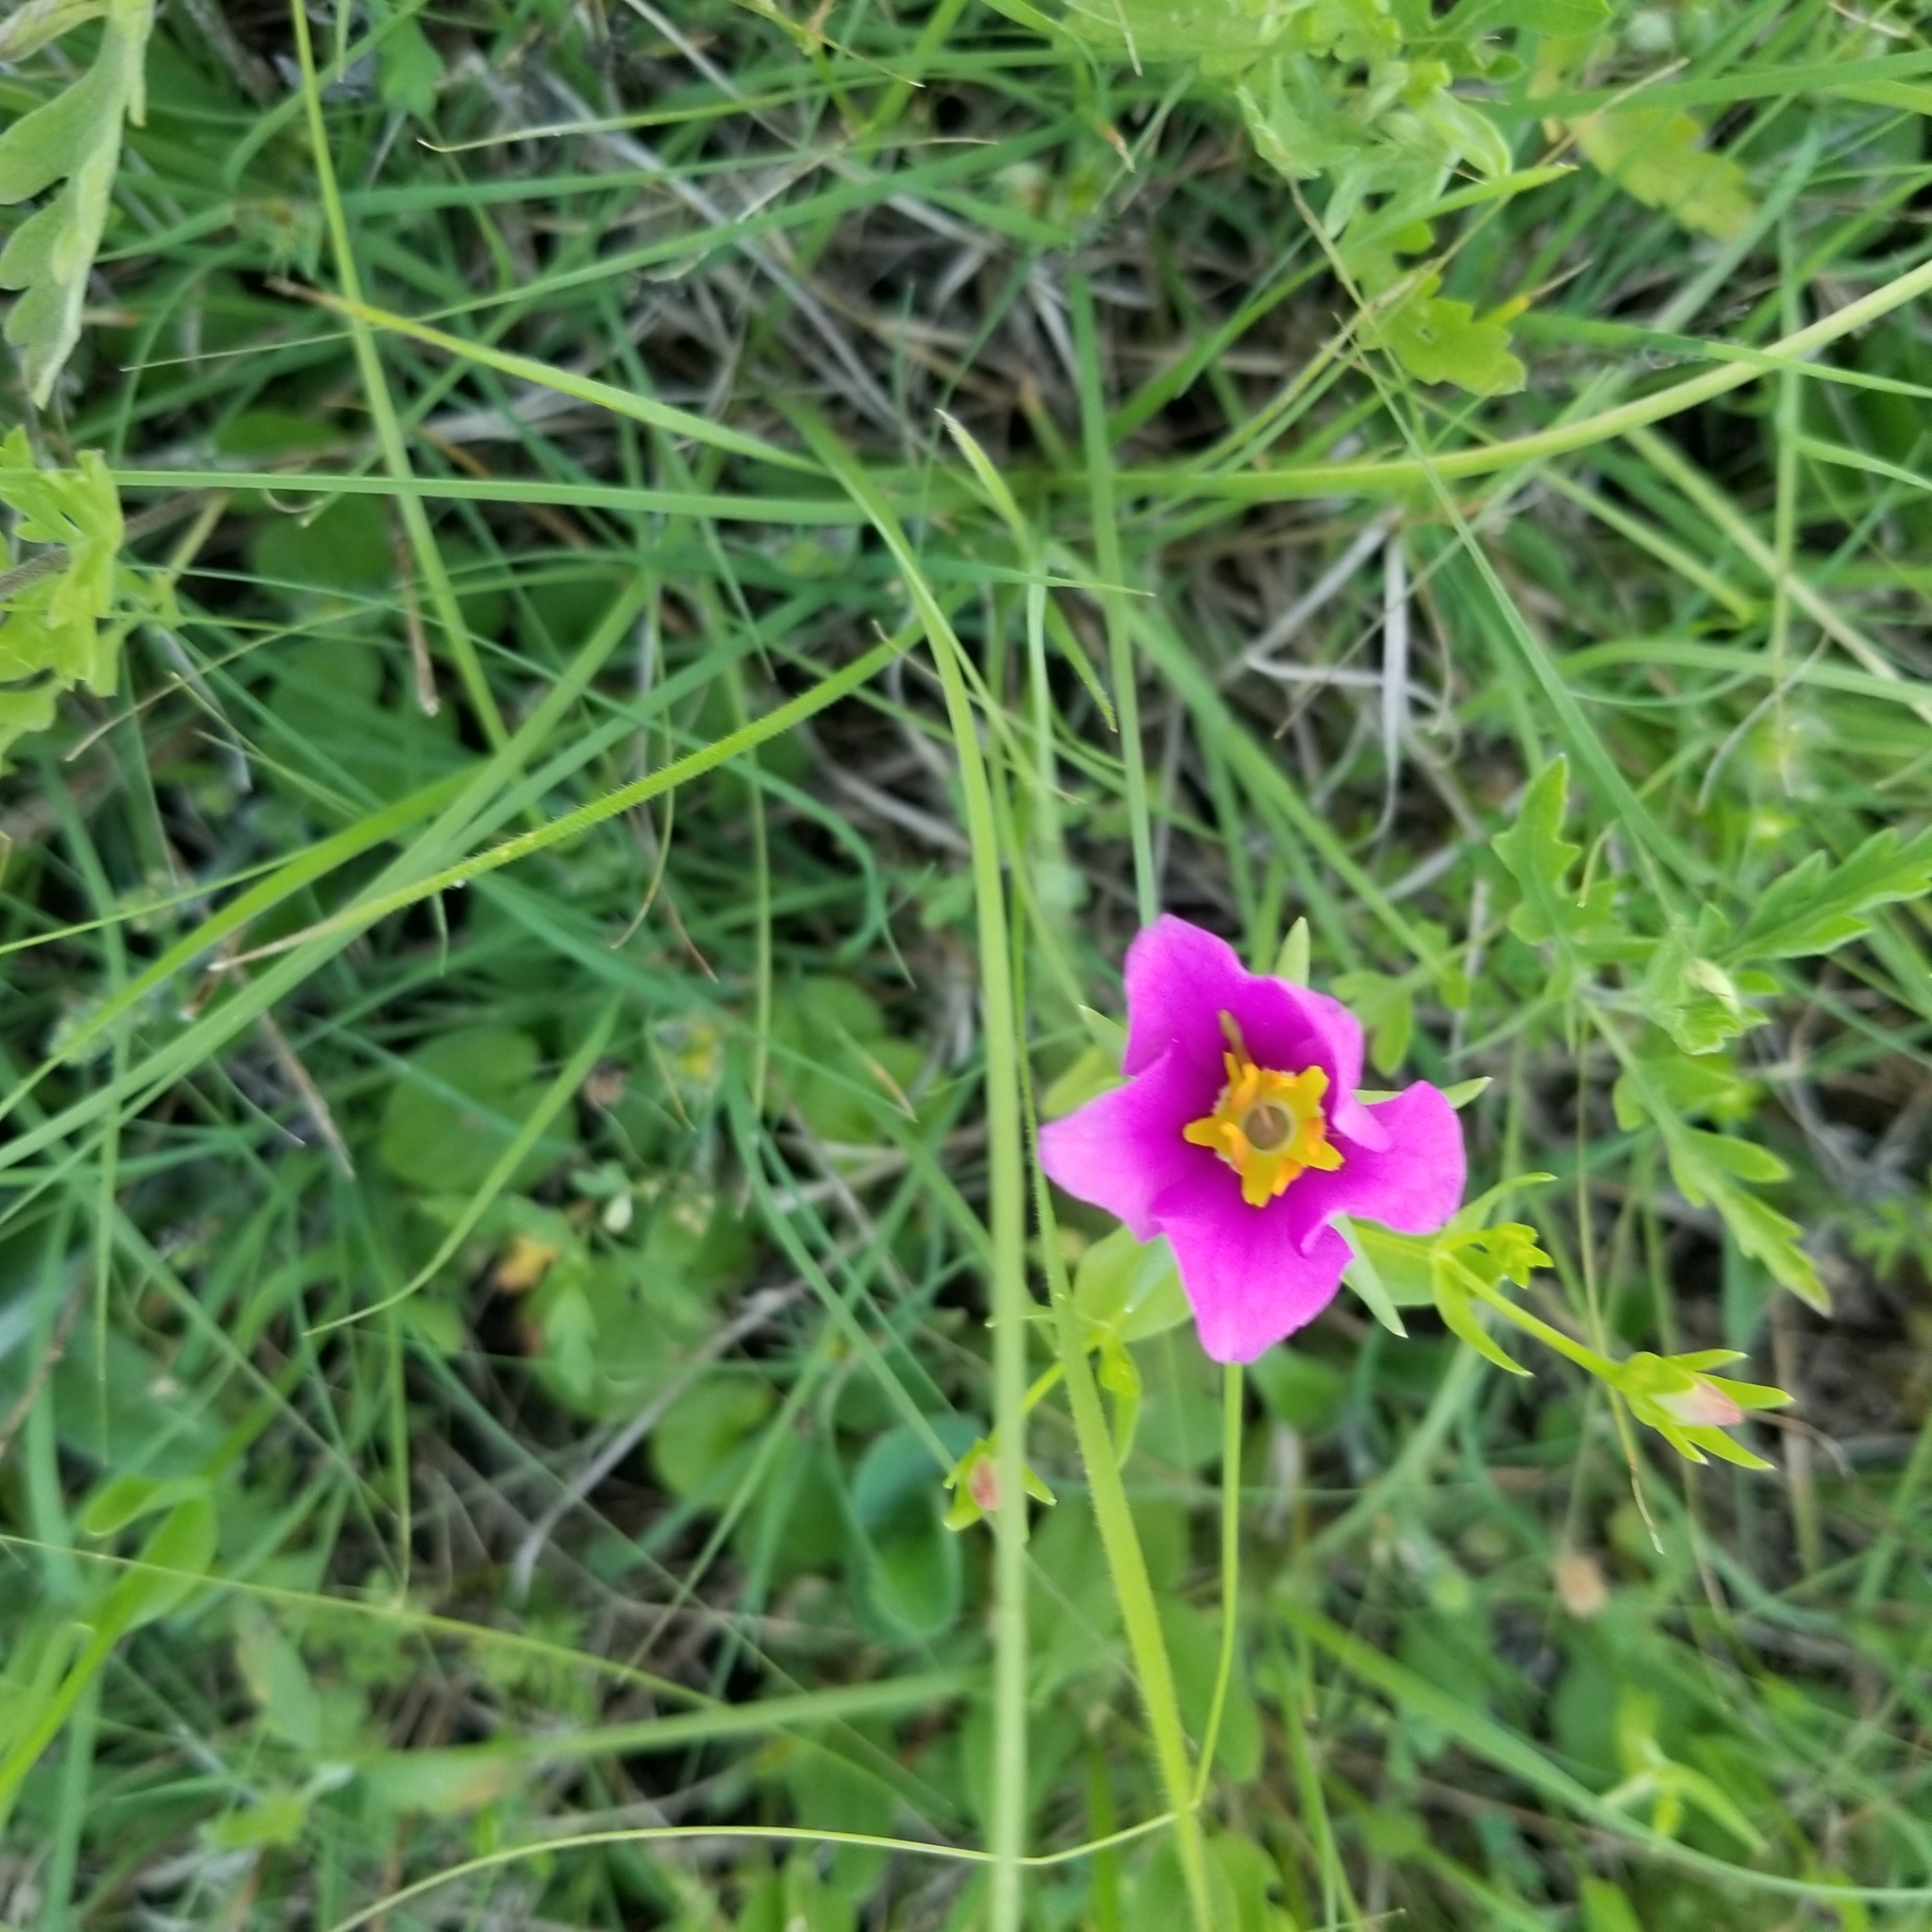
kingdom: Plantae
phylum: Tracheophyta
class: Magnoliopsida
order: Gentianales
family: Gentianaceae
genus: Sabatia
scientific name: Sabatia campestris
